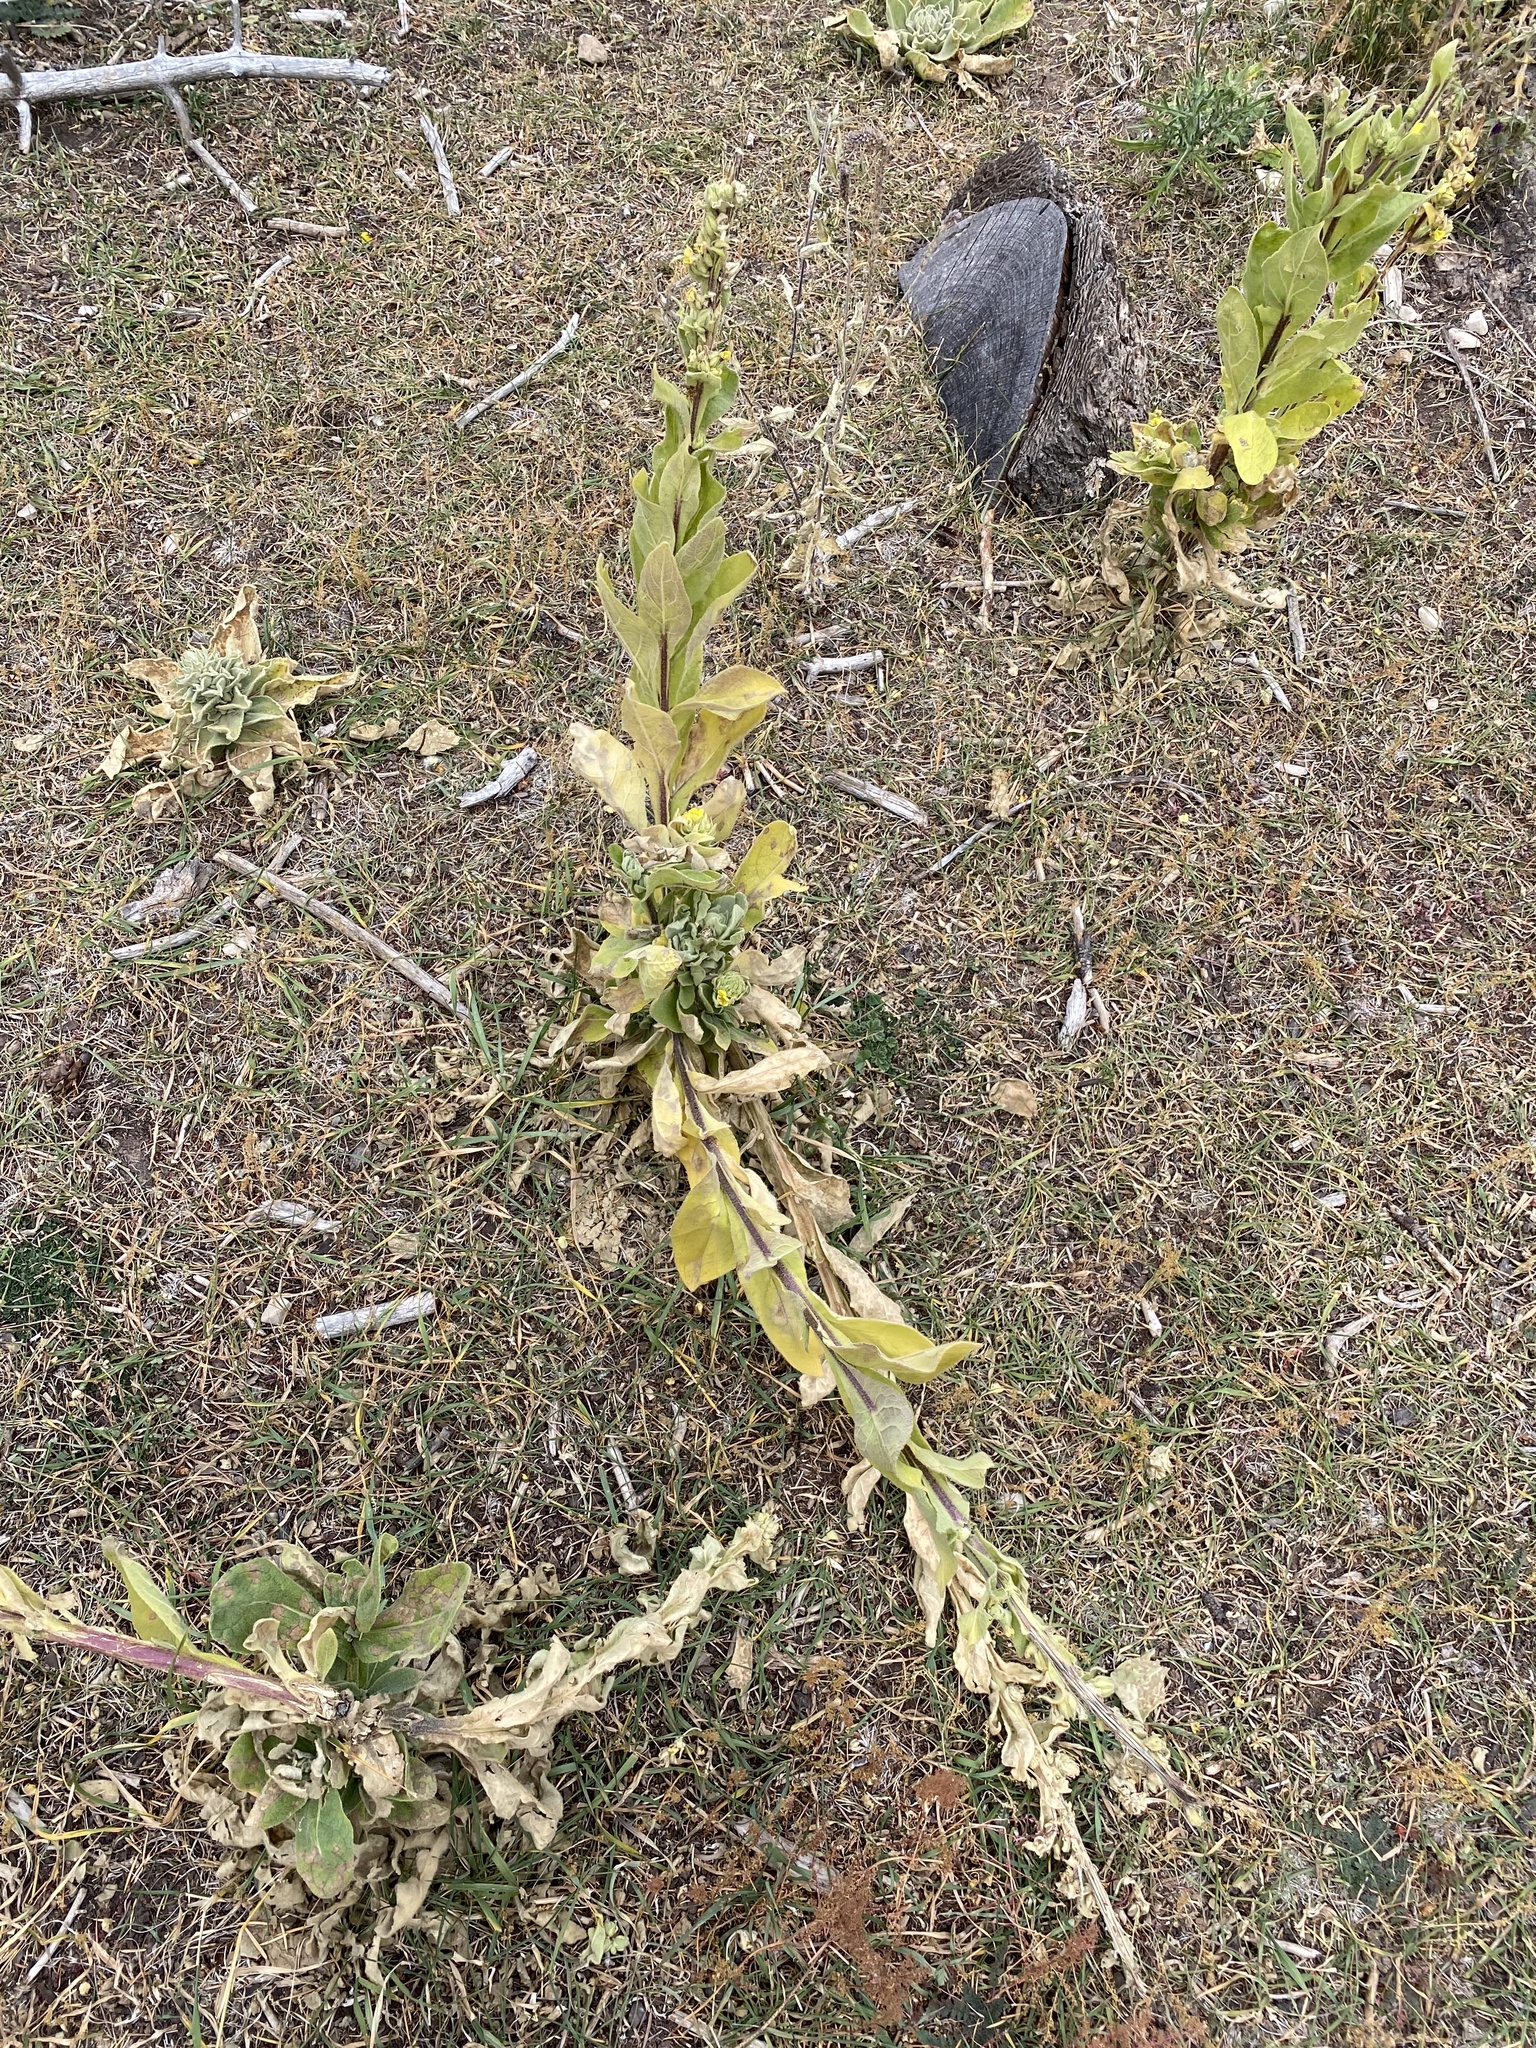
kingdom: Plantae
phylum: Tracheophyta
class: Magnoliopsida
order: Lamiales
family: Scrophulariaceae
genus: Verbascum
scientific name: Verbascum thapsus
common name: Common mullein
